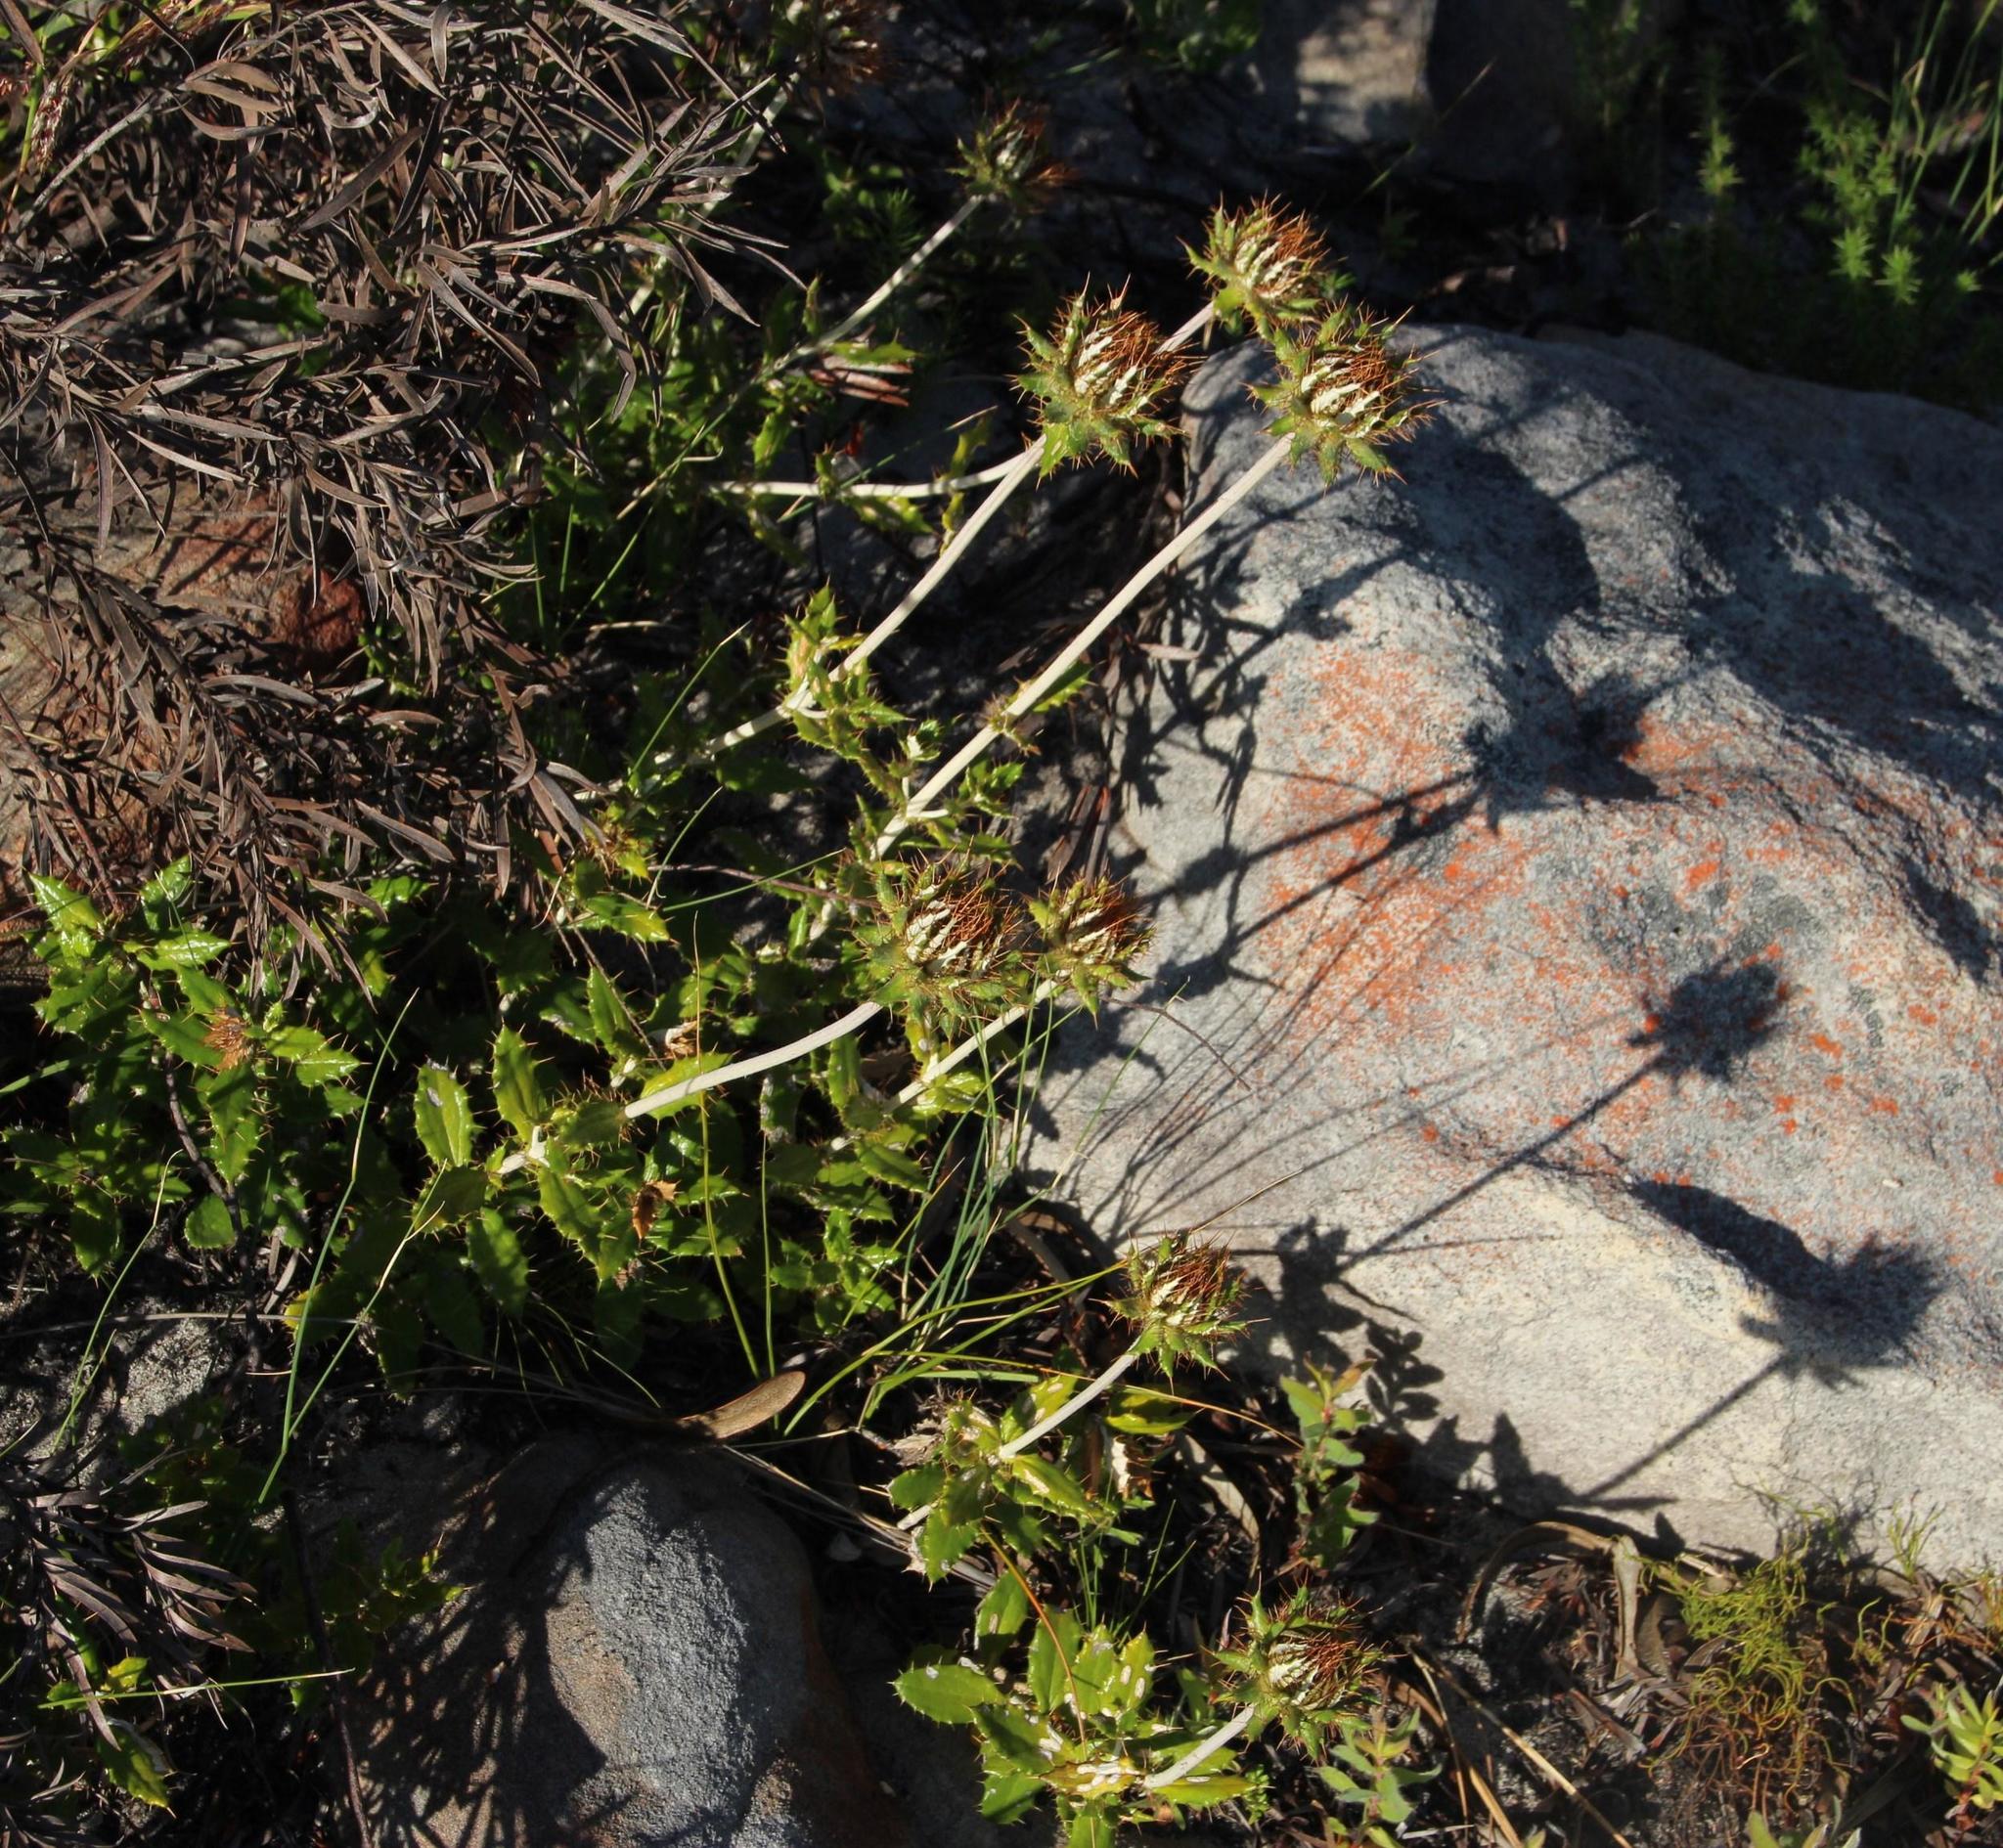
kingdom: Plantae
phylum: Tracheophyta
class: Magnoliopsida
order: Asterales
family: Asteraceae
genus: Berkheya
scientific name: Berkheya barbata
